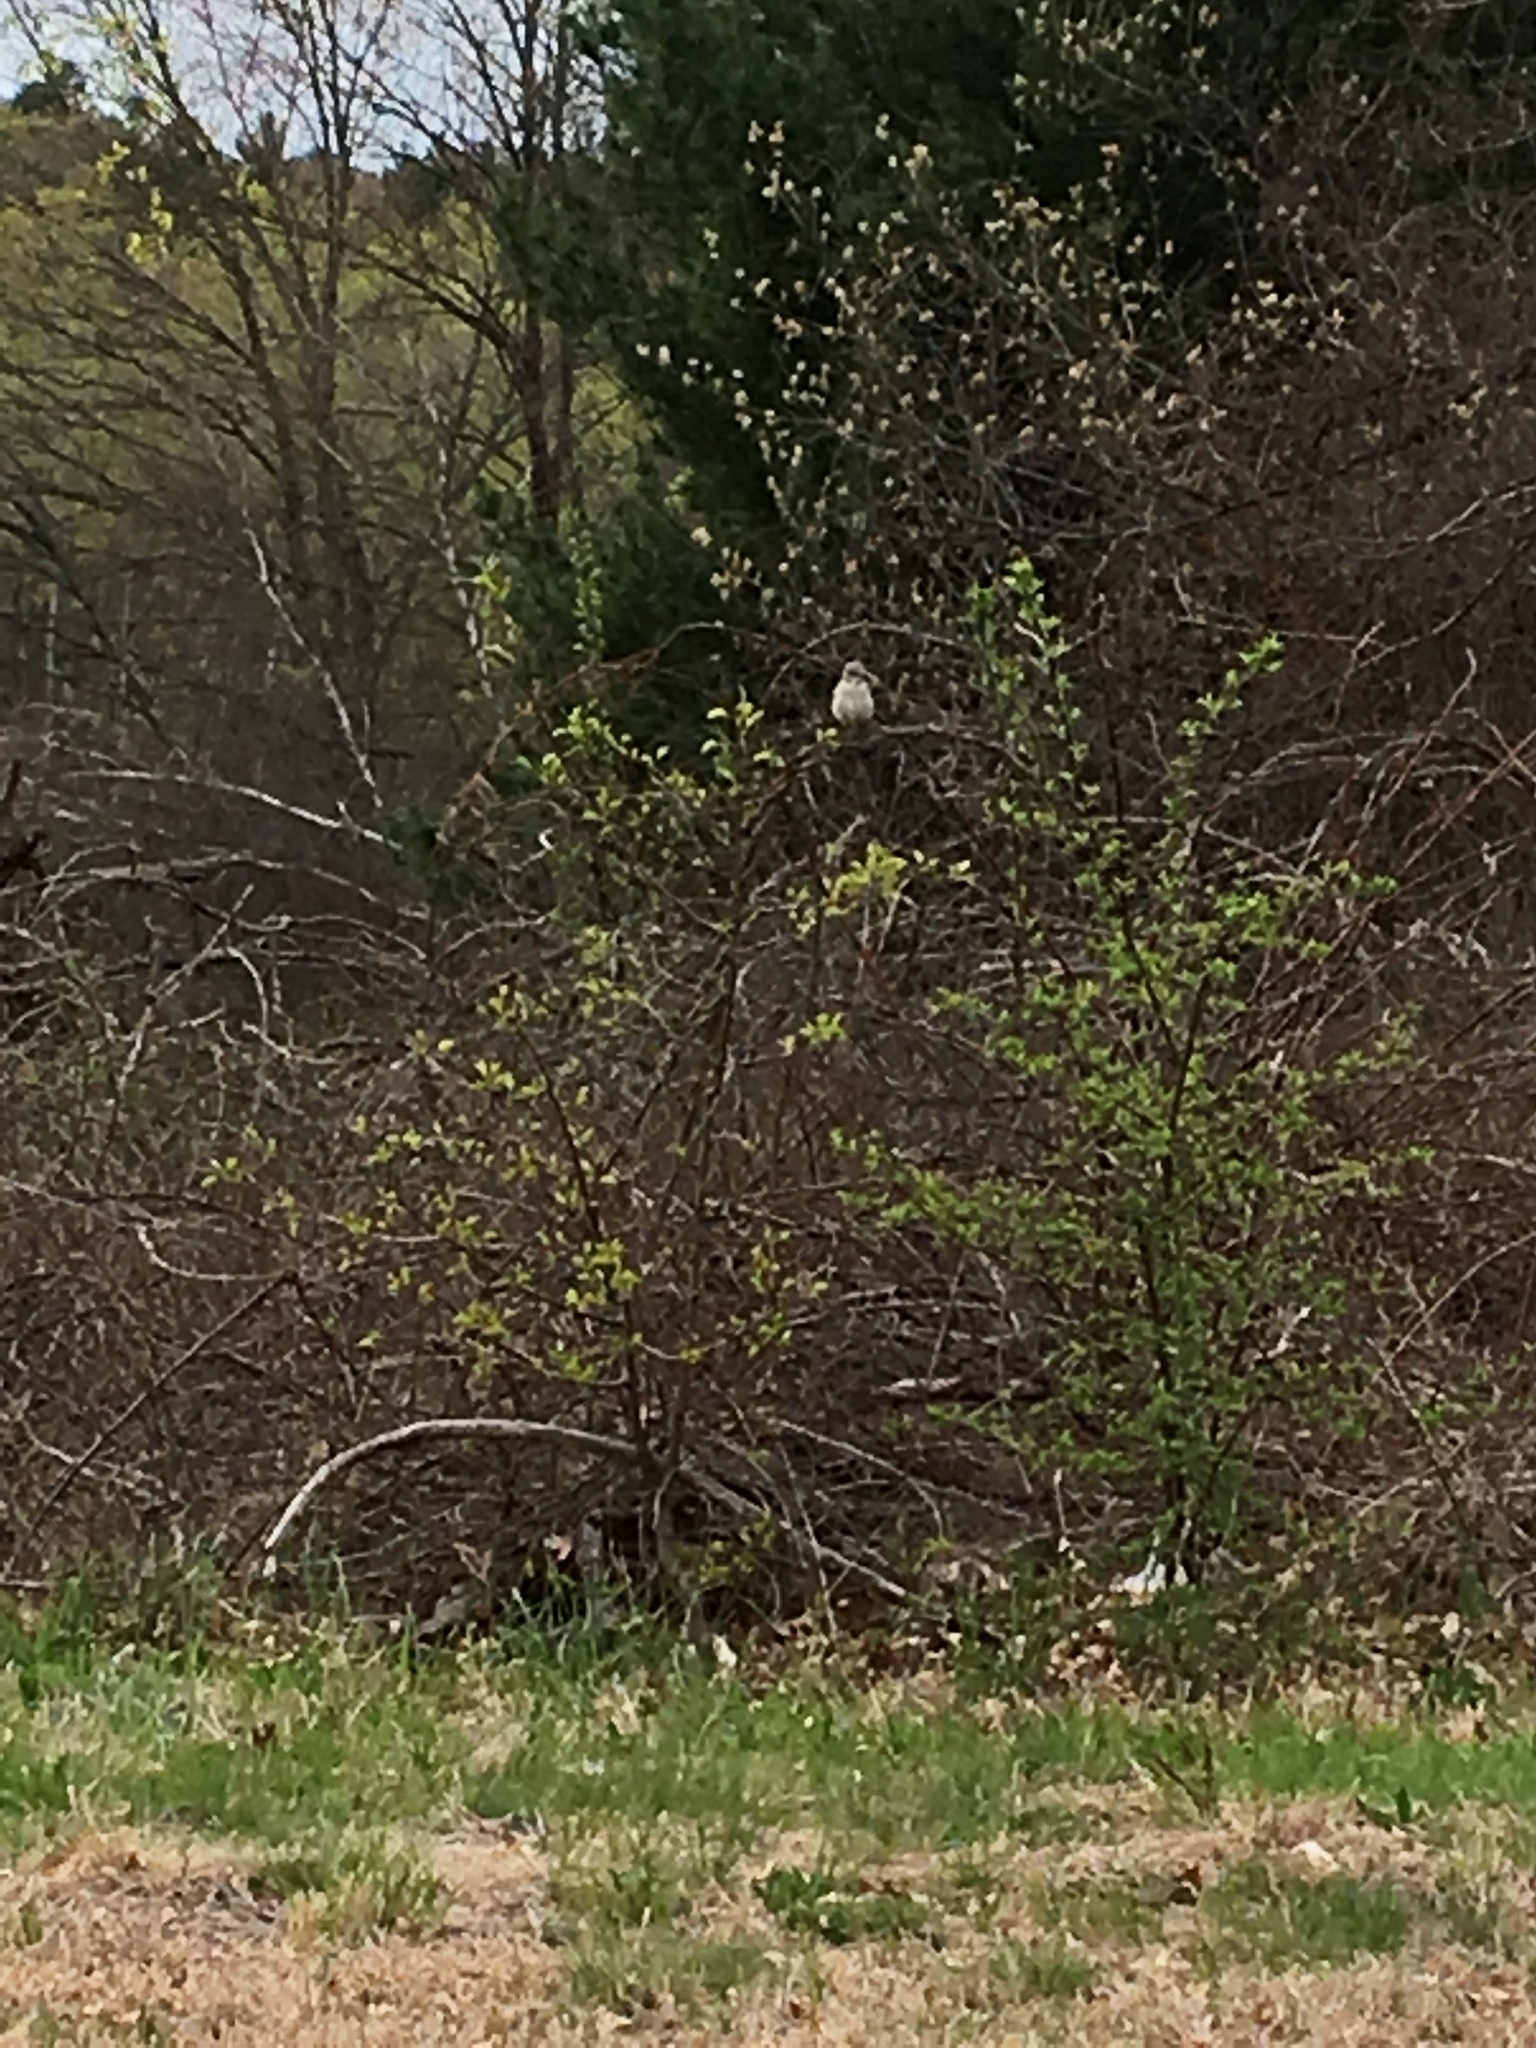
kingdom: Animalia
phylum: Chordata
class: Aves
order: Passeriformes
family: Mimidae
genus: Mimus
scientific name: Mimus polyglottos
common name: Northern mockingbird
